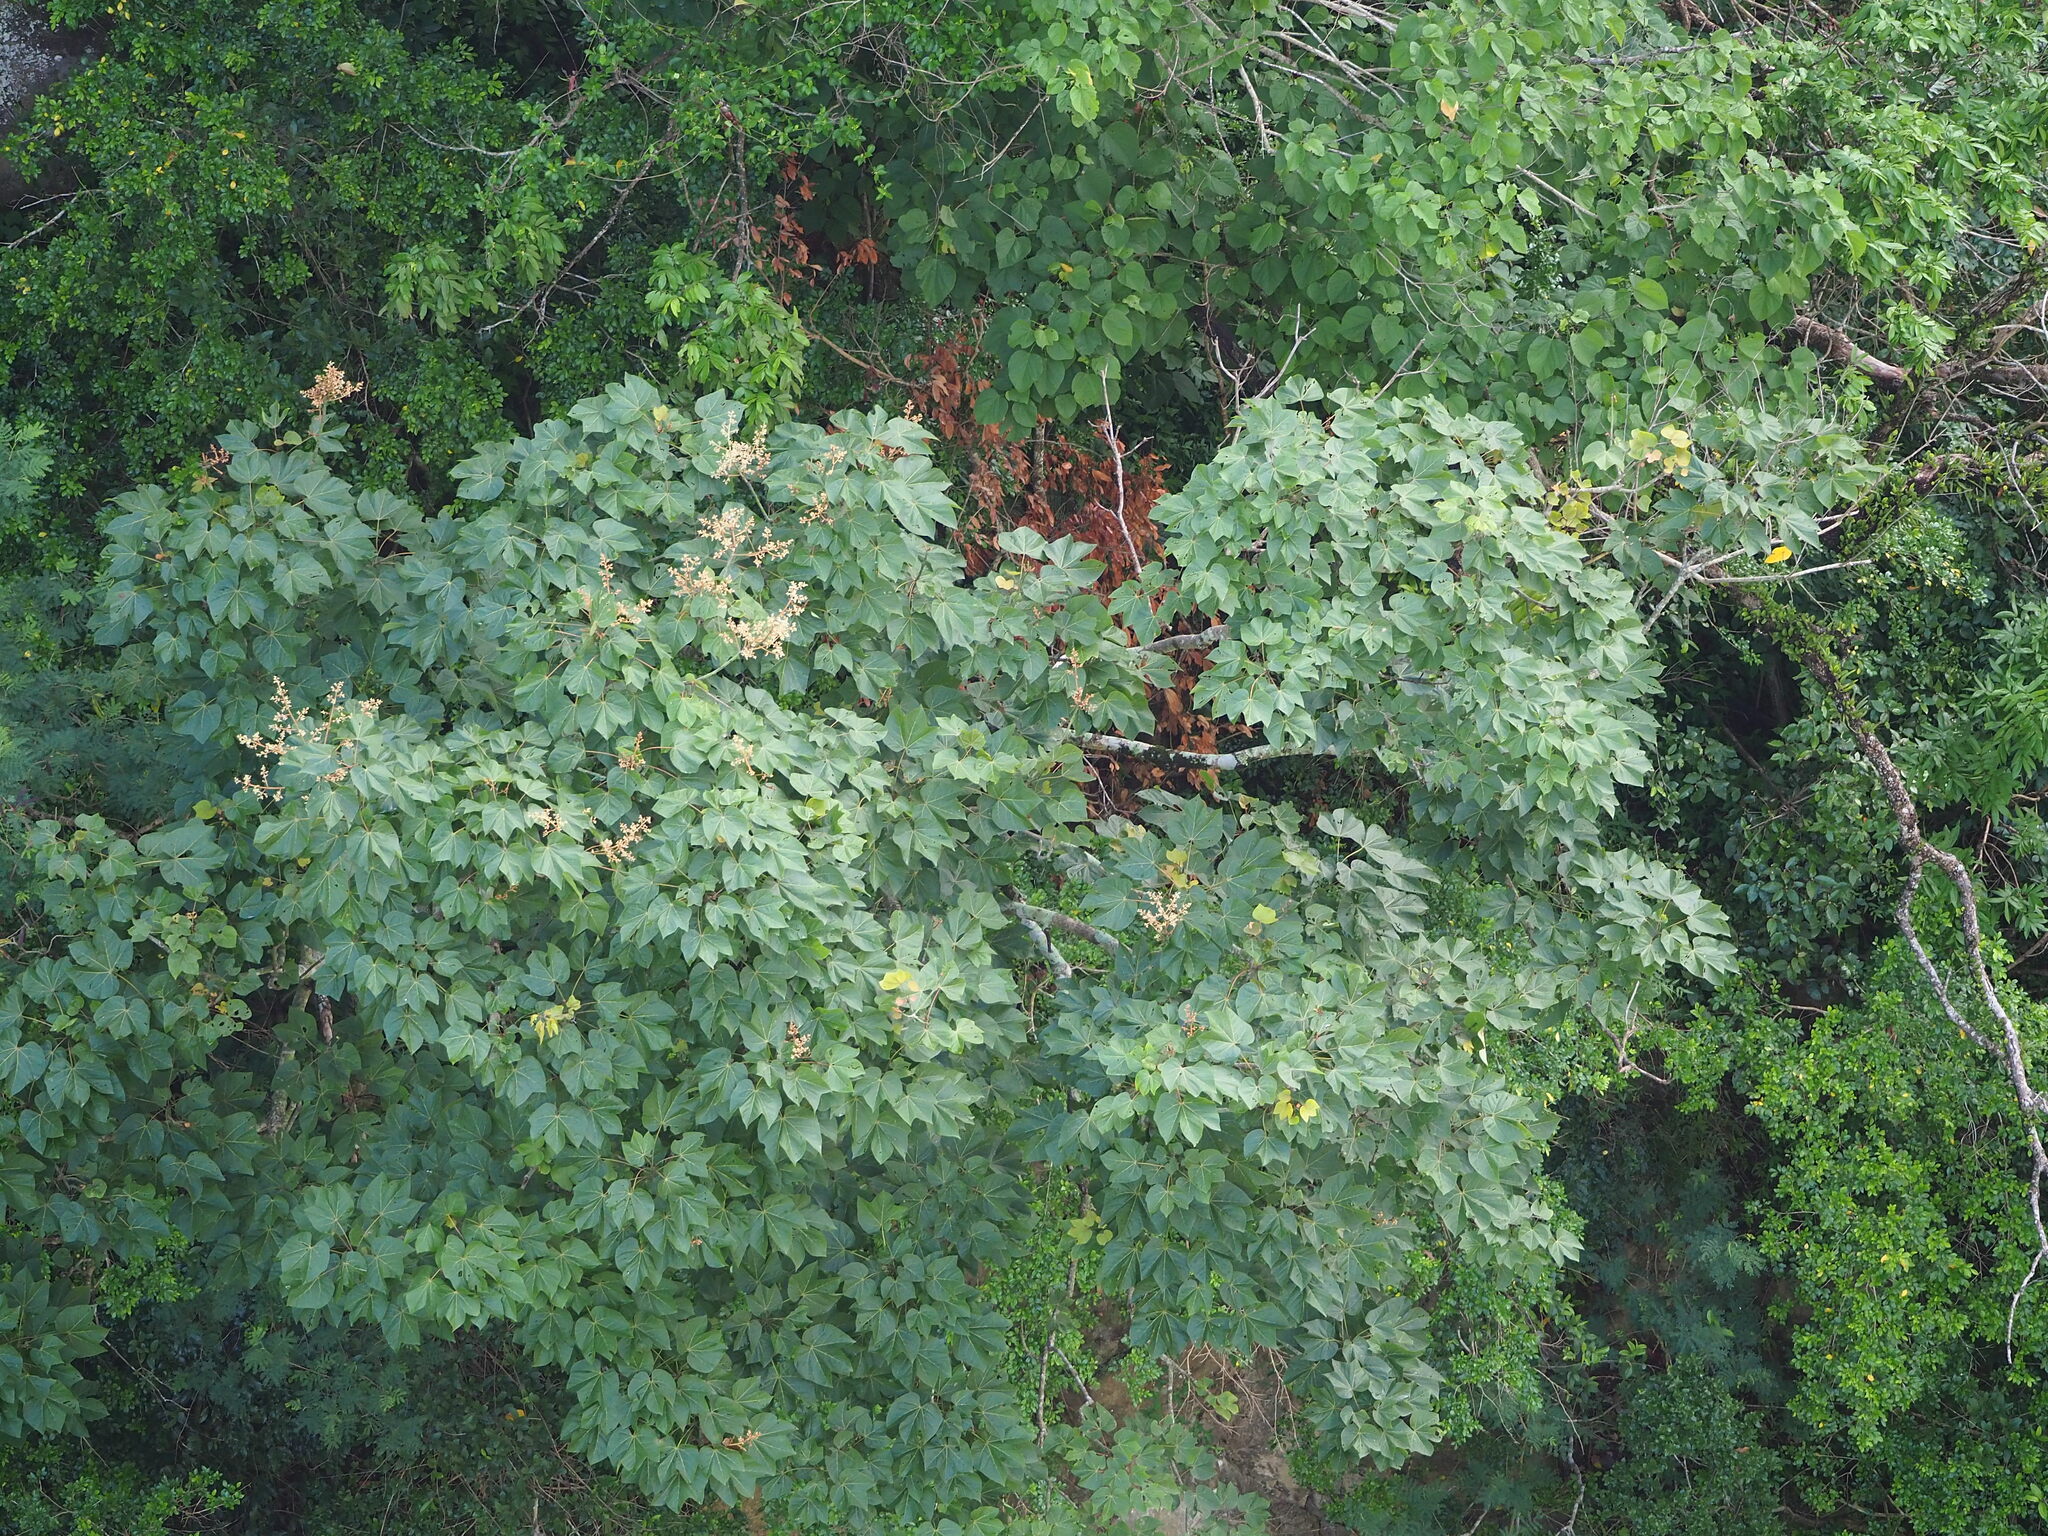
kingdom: Plantae
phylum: Tracheophyta
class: Magnoliopsida
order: Malvales
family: Malvaceae
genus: Firmiana
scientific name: Firmiana simplex
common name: Chinese parasoltree
